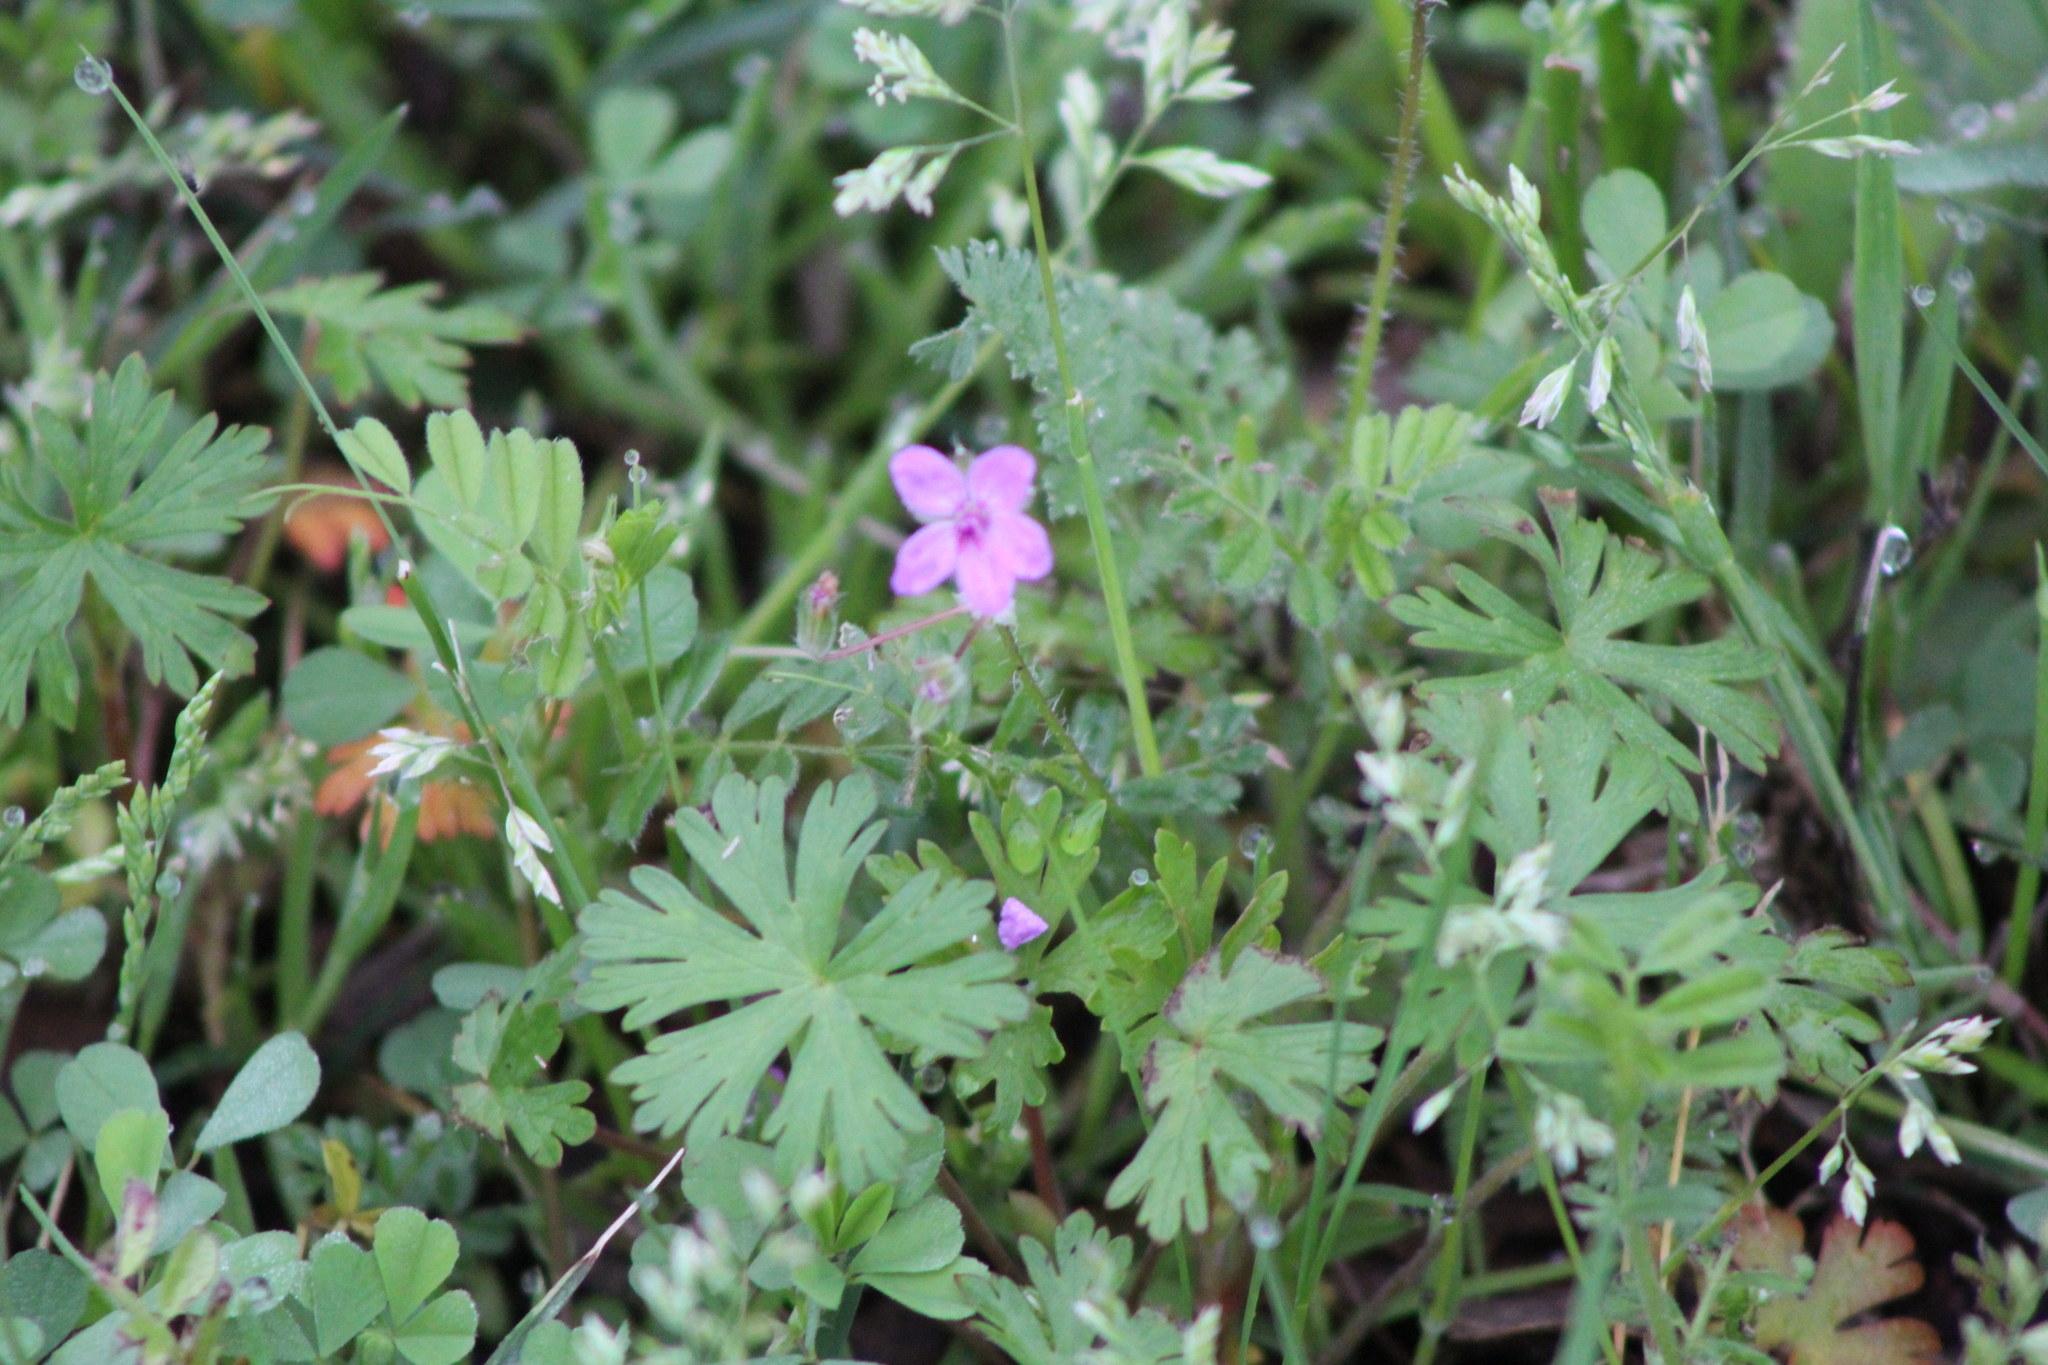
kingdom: Plantae
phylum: Tracheophyta
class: Magnoliopsida
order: Geraniales
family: Geraniaceae
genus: Erodium
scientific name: Erodium cicutarium
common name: Common stork's-bill
